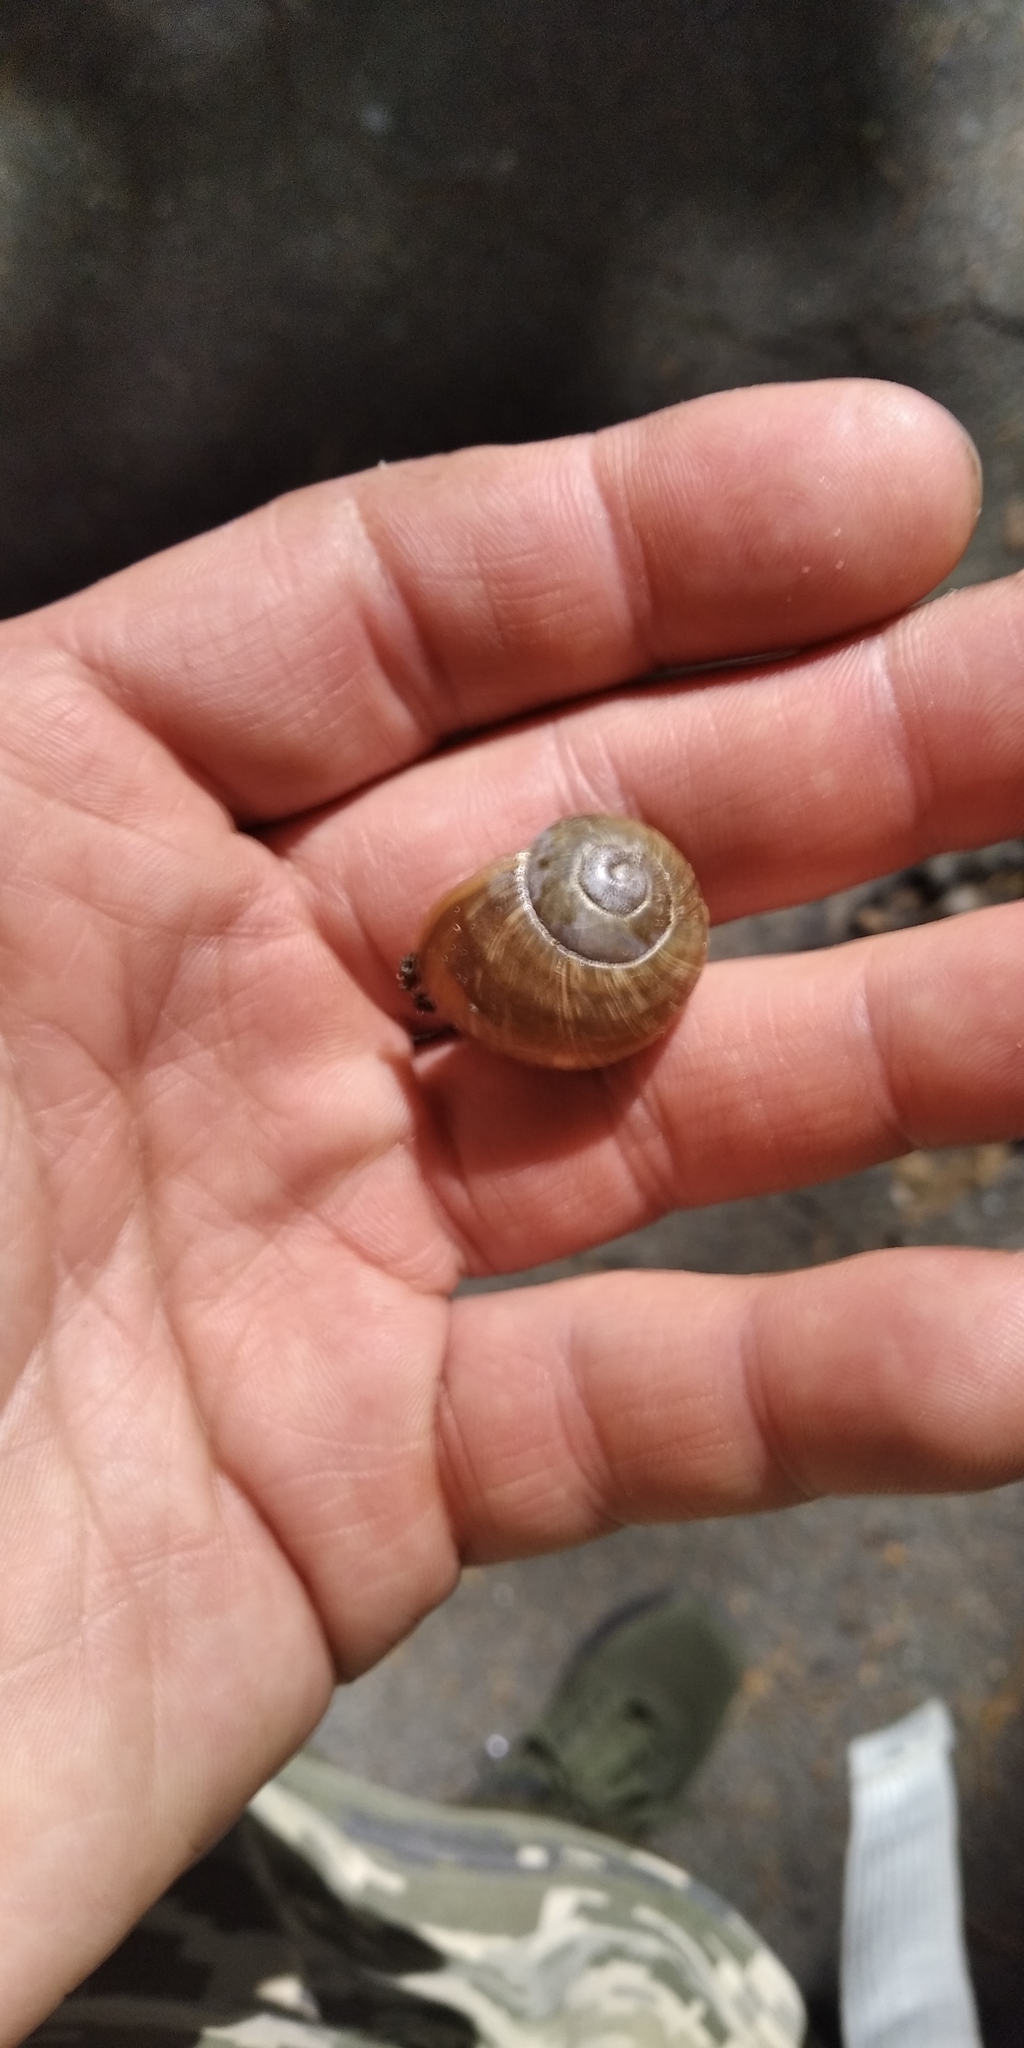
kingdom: Animalia
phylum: Mollusca
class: Gastropoda
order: Stylommatophora
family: Helicidae
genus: Helix
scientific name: Helix pomatia
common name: Roman snail
